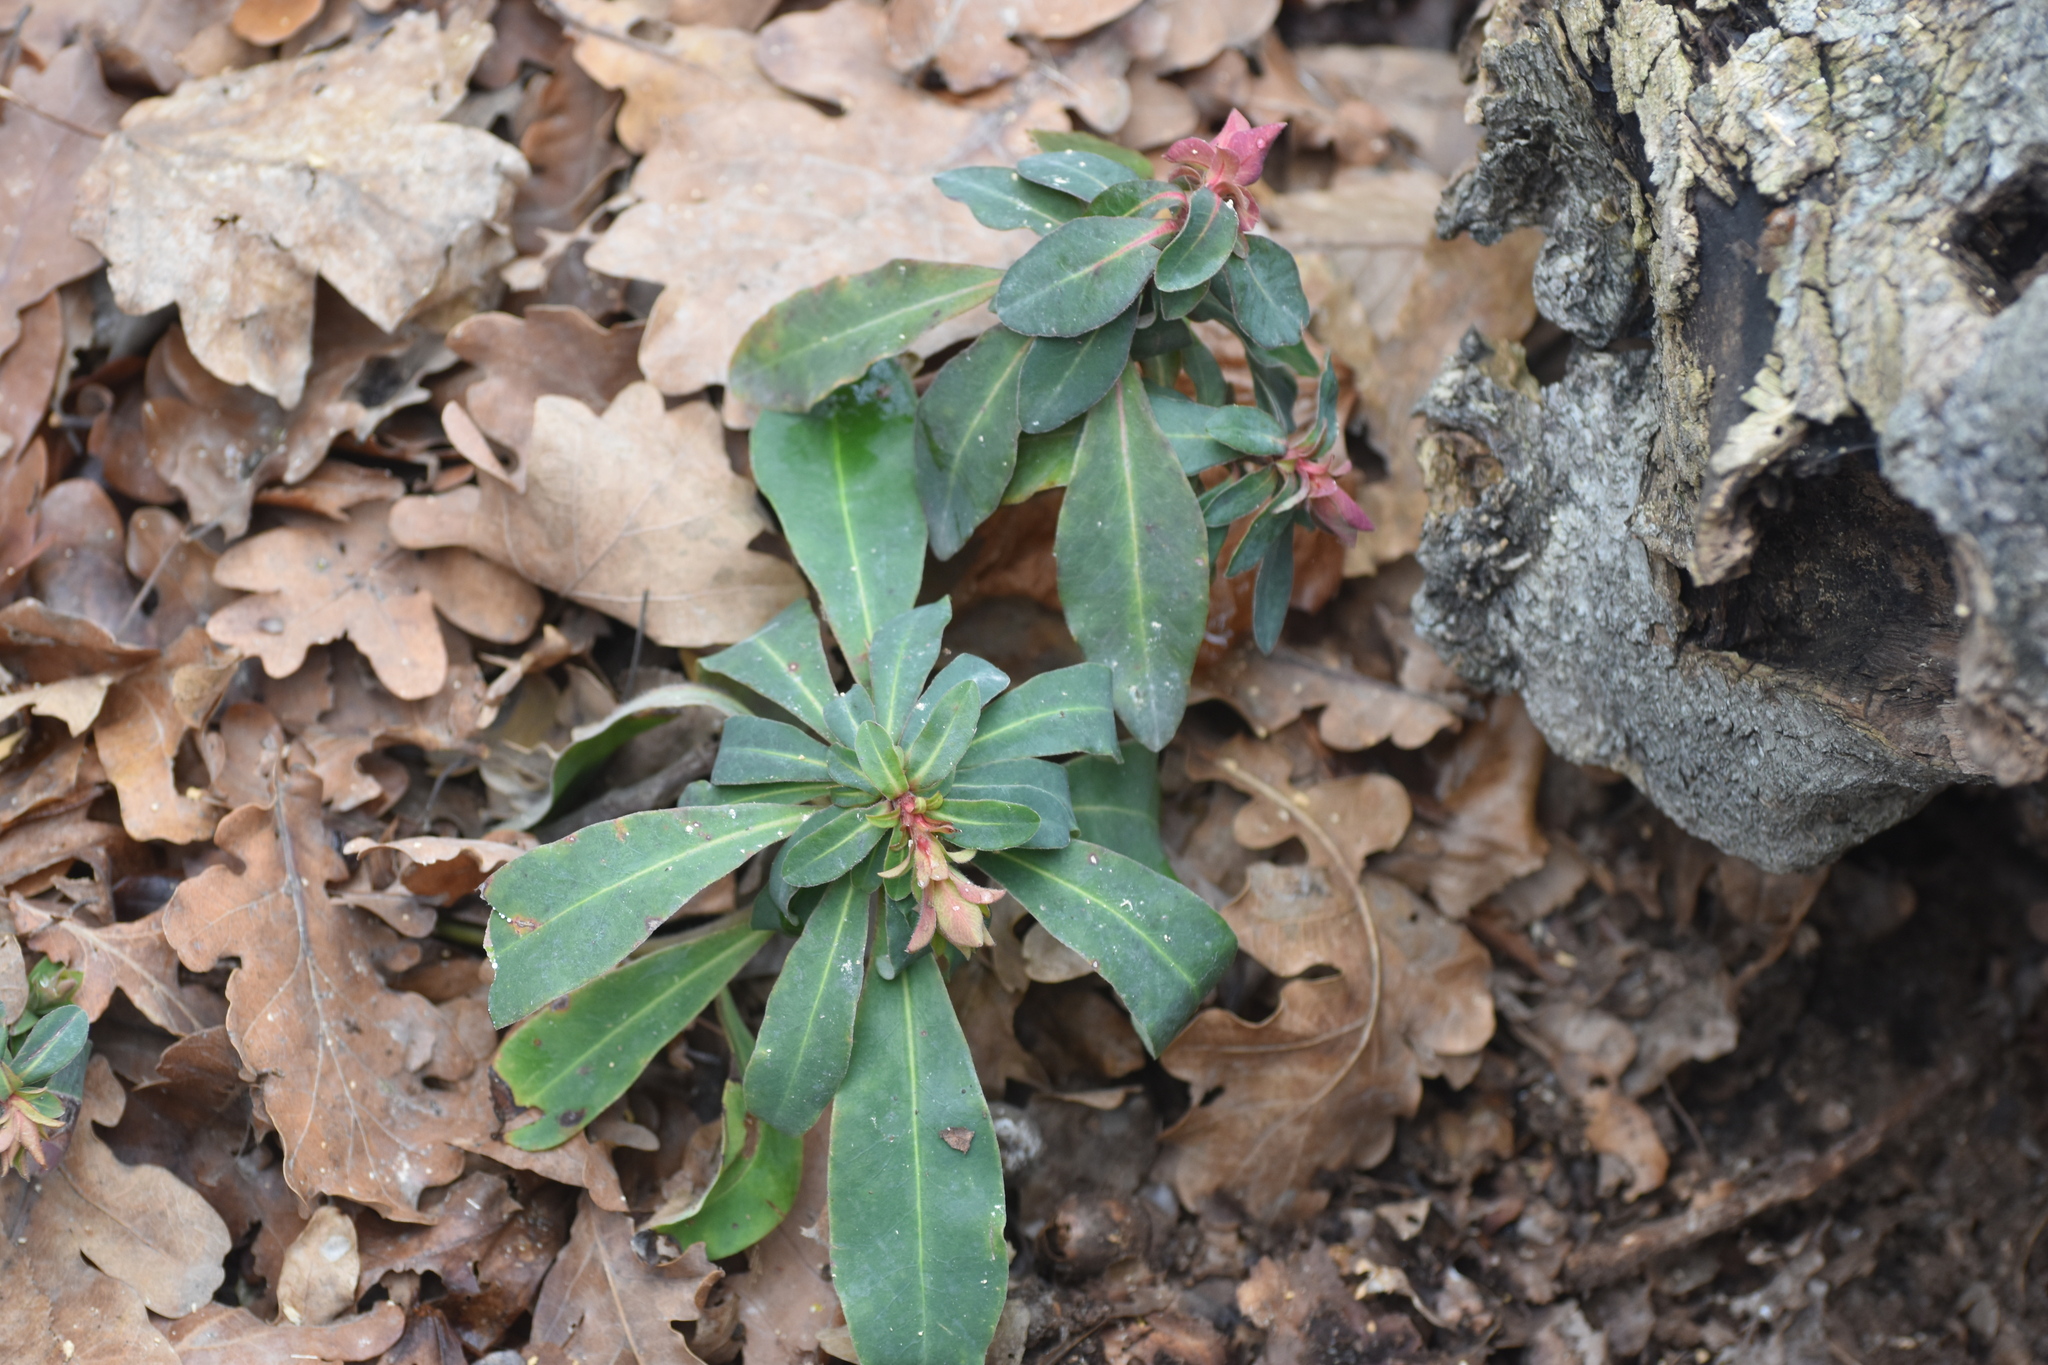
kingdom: Plantae
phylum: Tracheophyta
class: Magnoliopsida
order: Malpighiales
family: Euphorbiaceae
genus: Euphorbia
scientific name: Euphorbia amygdaloides
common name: Wood spurge
